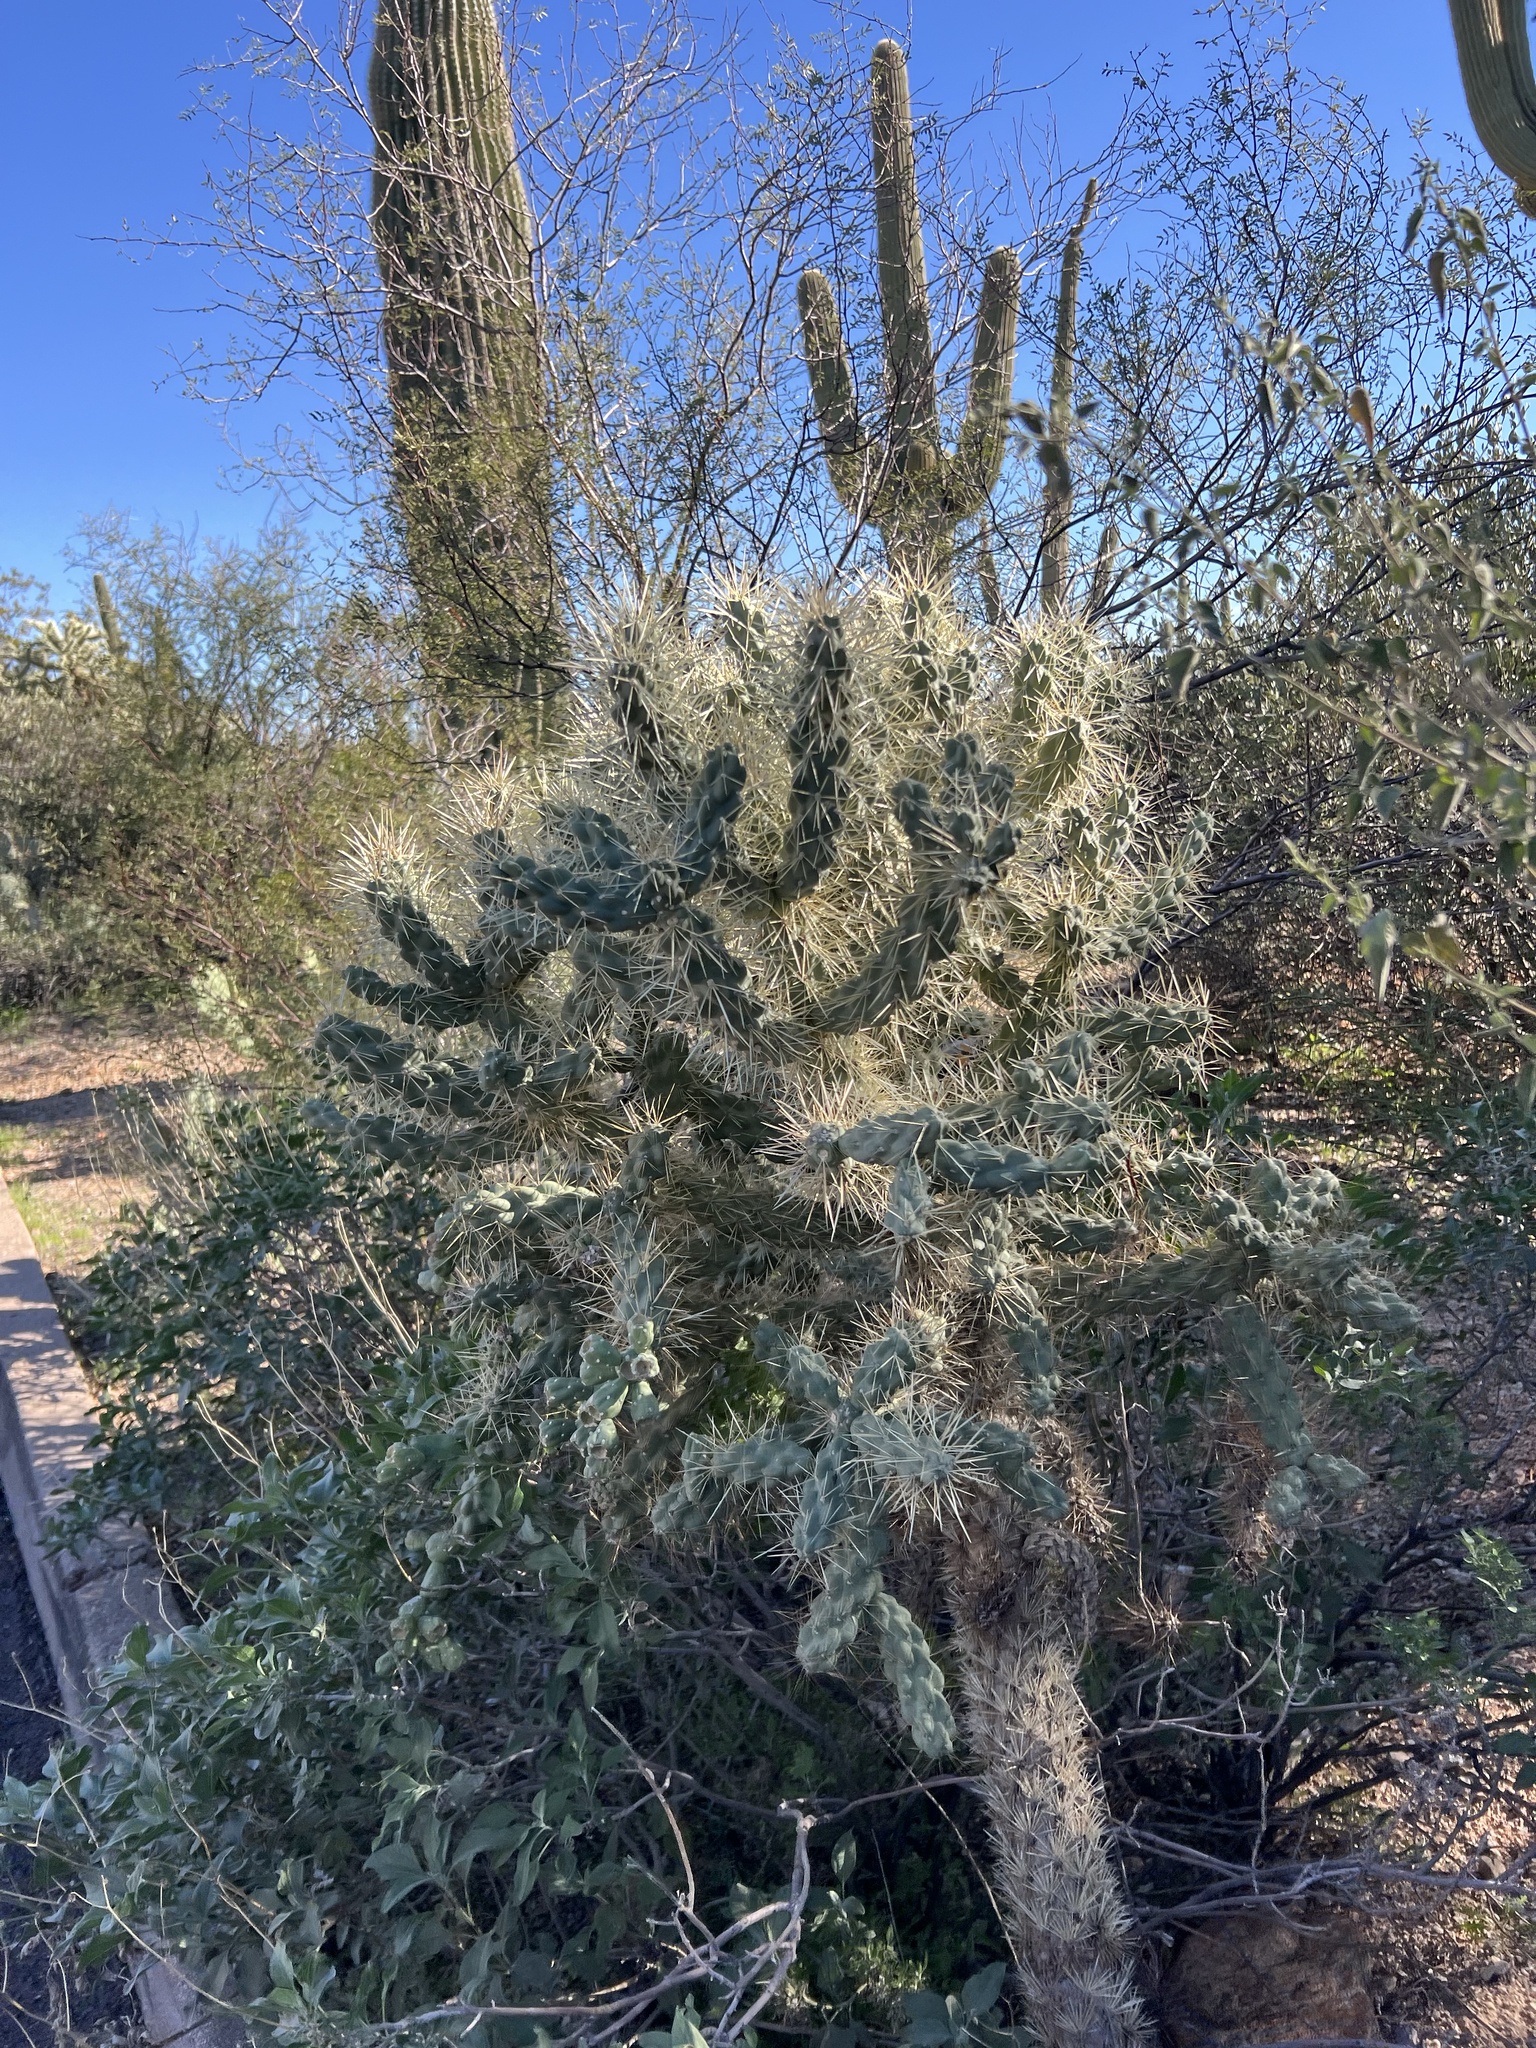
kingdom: Plantae
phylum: Tracheophyta
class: Magnoliopsida
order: Caryophyllales
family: Cactaceae
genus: Cylindropuntia
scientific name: Cylindropuntia fulgida
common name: Jumping cholla
